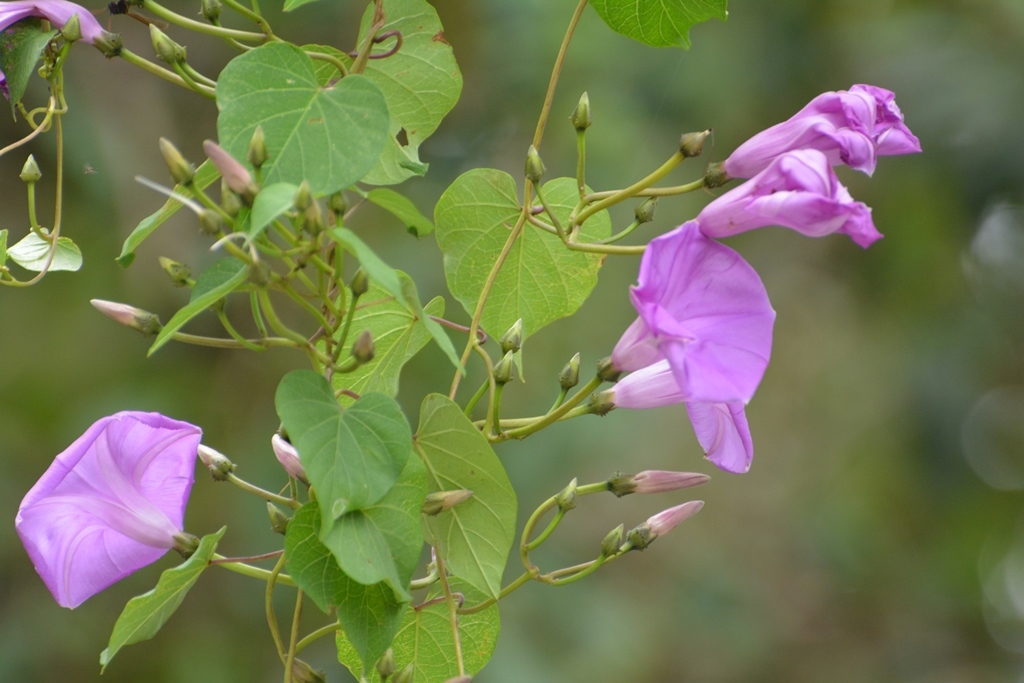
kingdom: Plantae
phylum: Tracheophyta
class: Magnoliopsida
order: Solanales
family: Convolvulaceae
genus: Ipomoea
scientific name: Ipomoea pedicellaris
